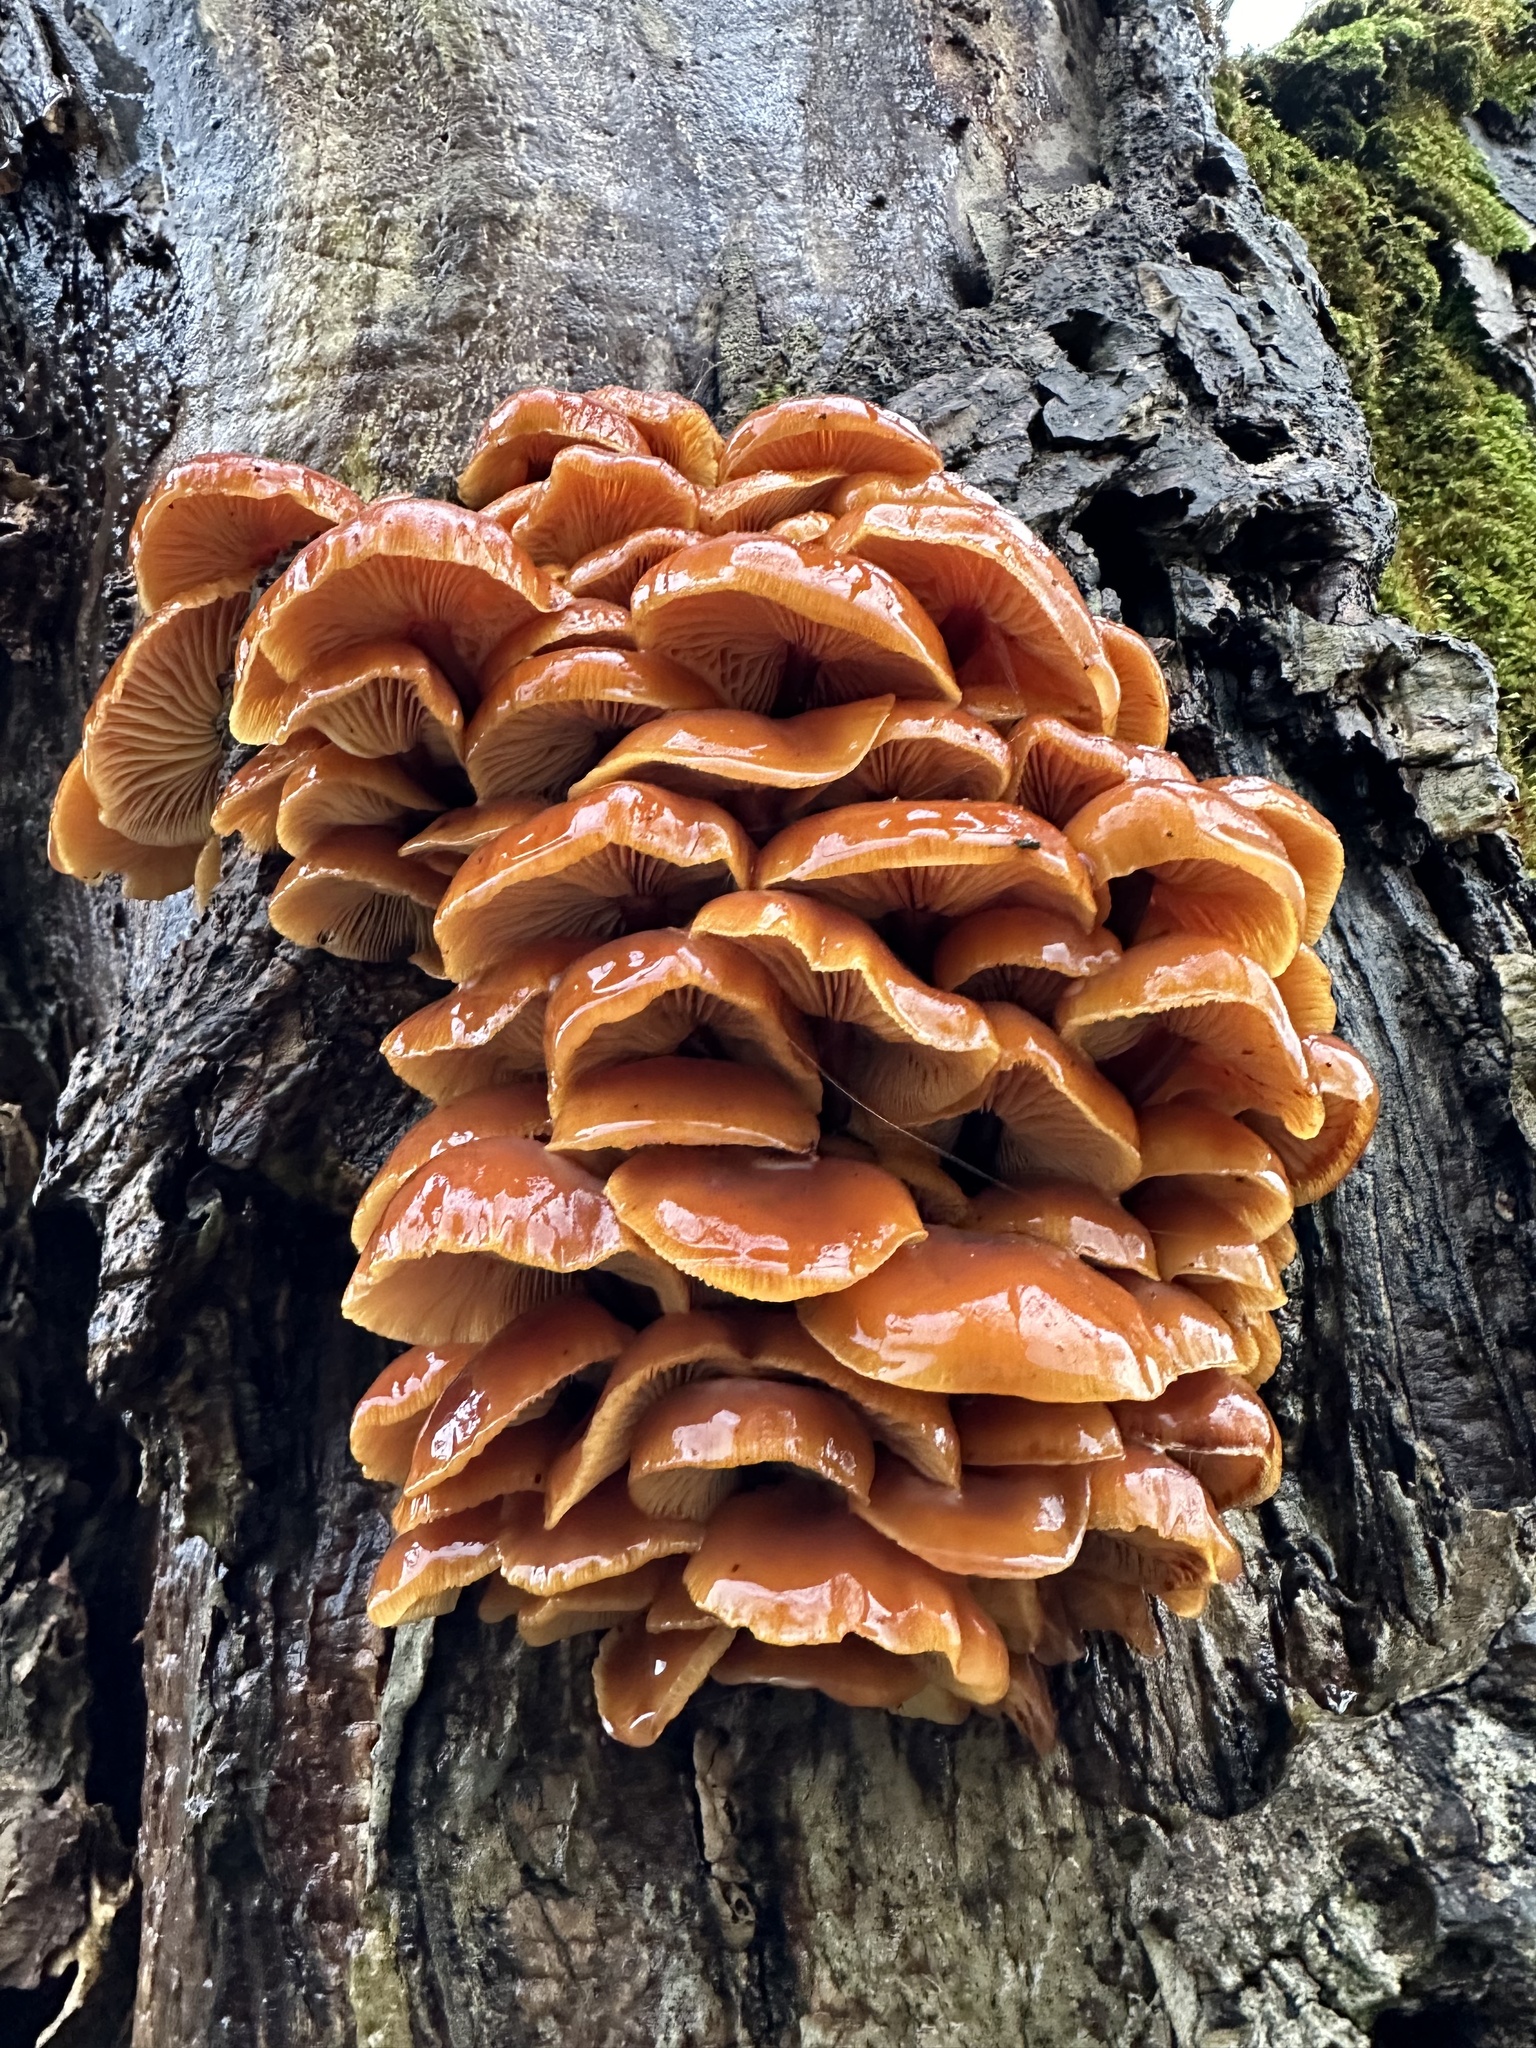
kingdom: Fungi
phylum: Basidiomycota
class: Agaricomycetes
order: Agaricales
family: Physalacriaceae
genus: Flammulina
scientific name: Flammulina
